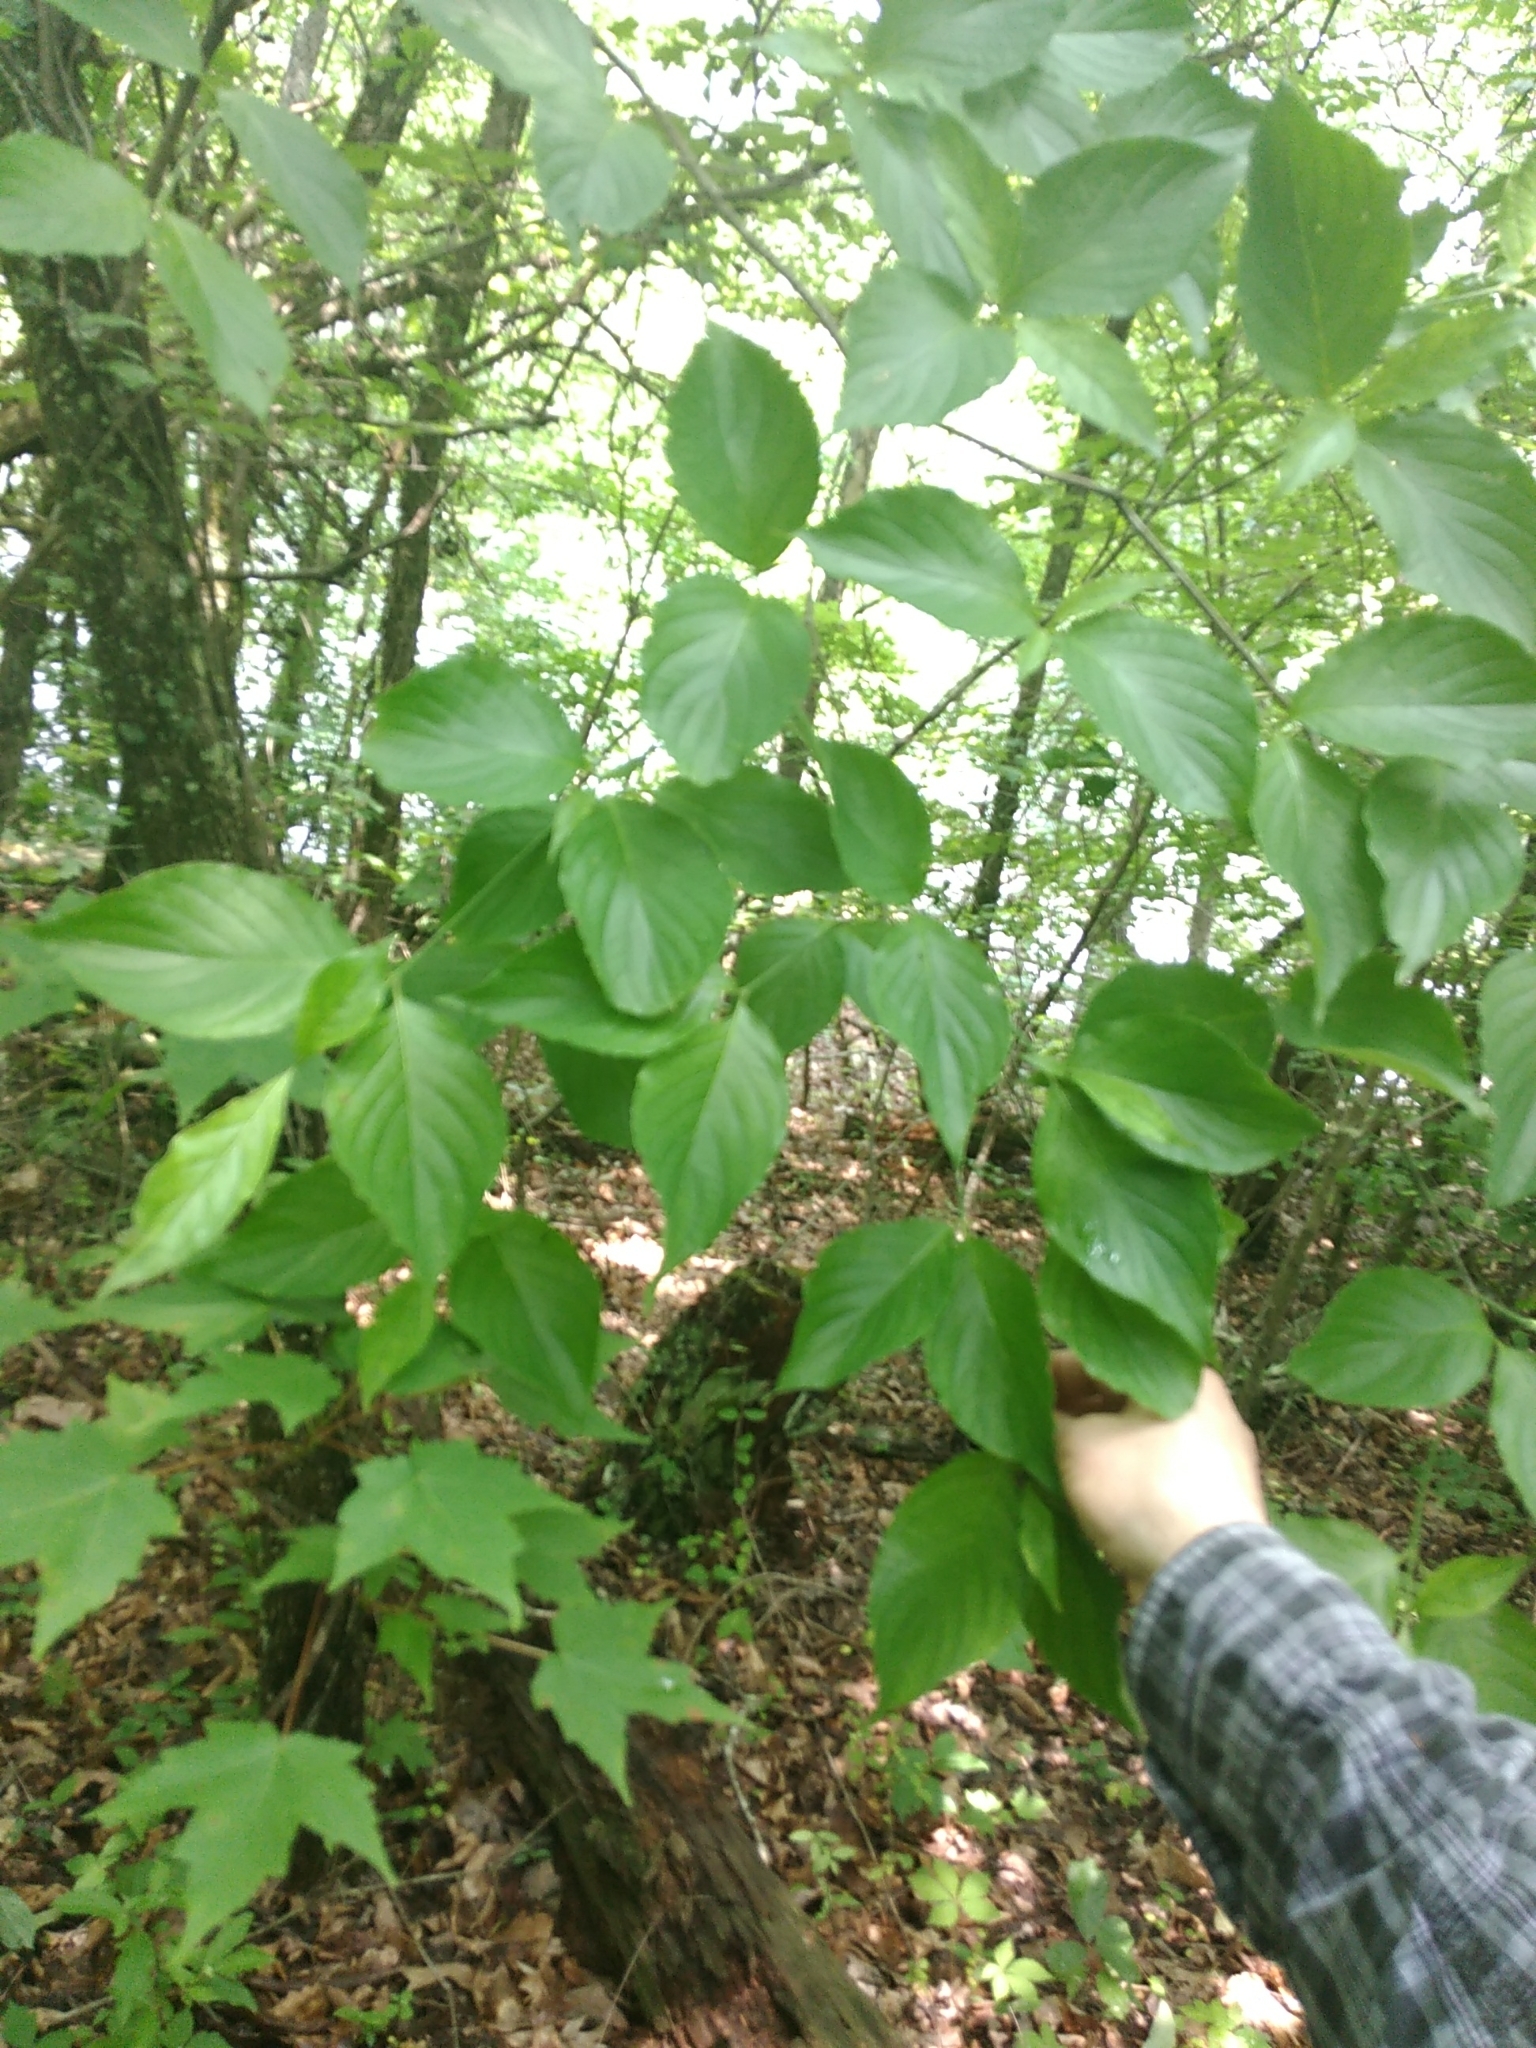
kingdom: Plantae
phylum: Tracheophyta
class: Magnoliopsida
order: Cornales
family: Cornaceae
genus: Cornus
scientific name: Cornus florida
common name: Flowering dogwood
